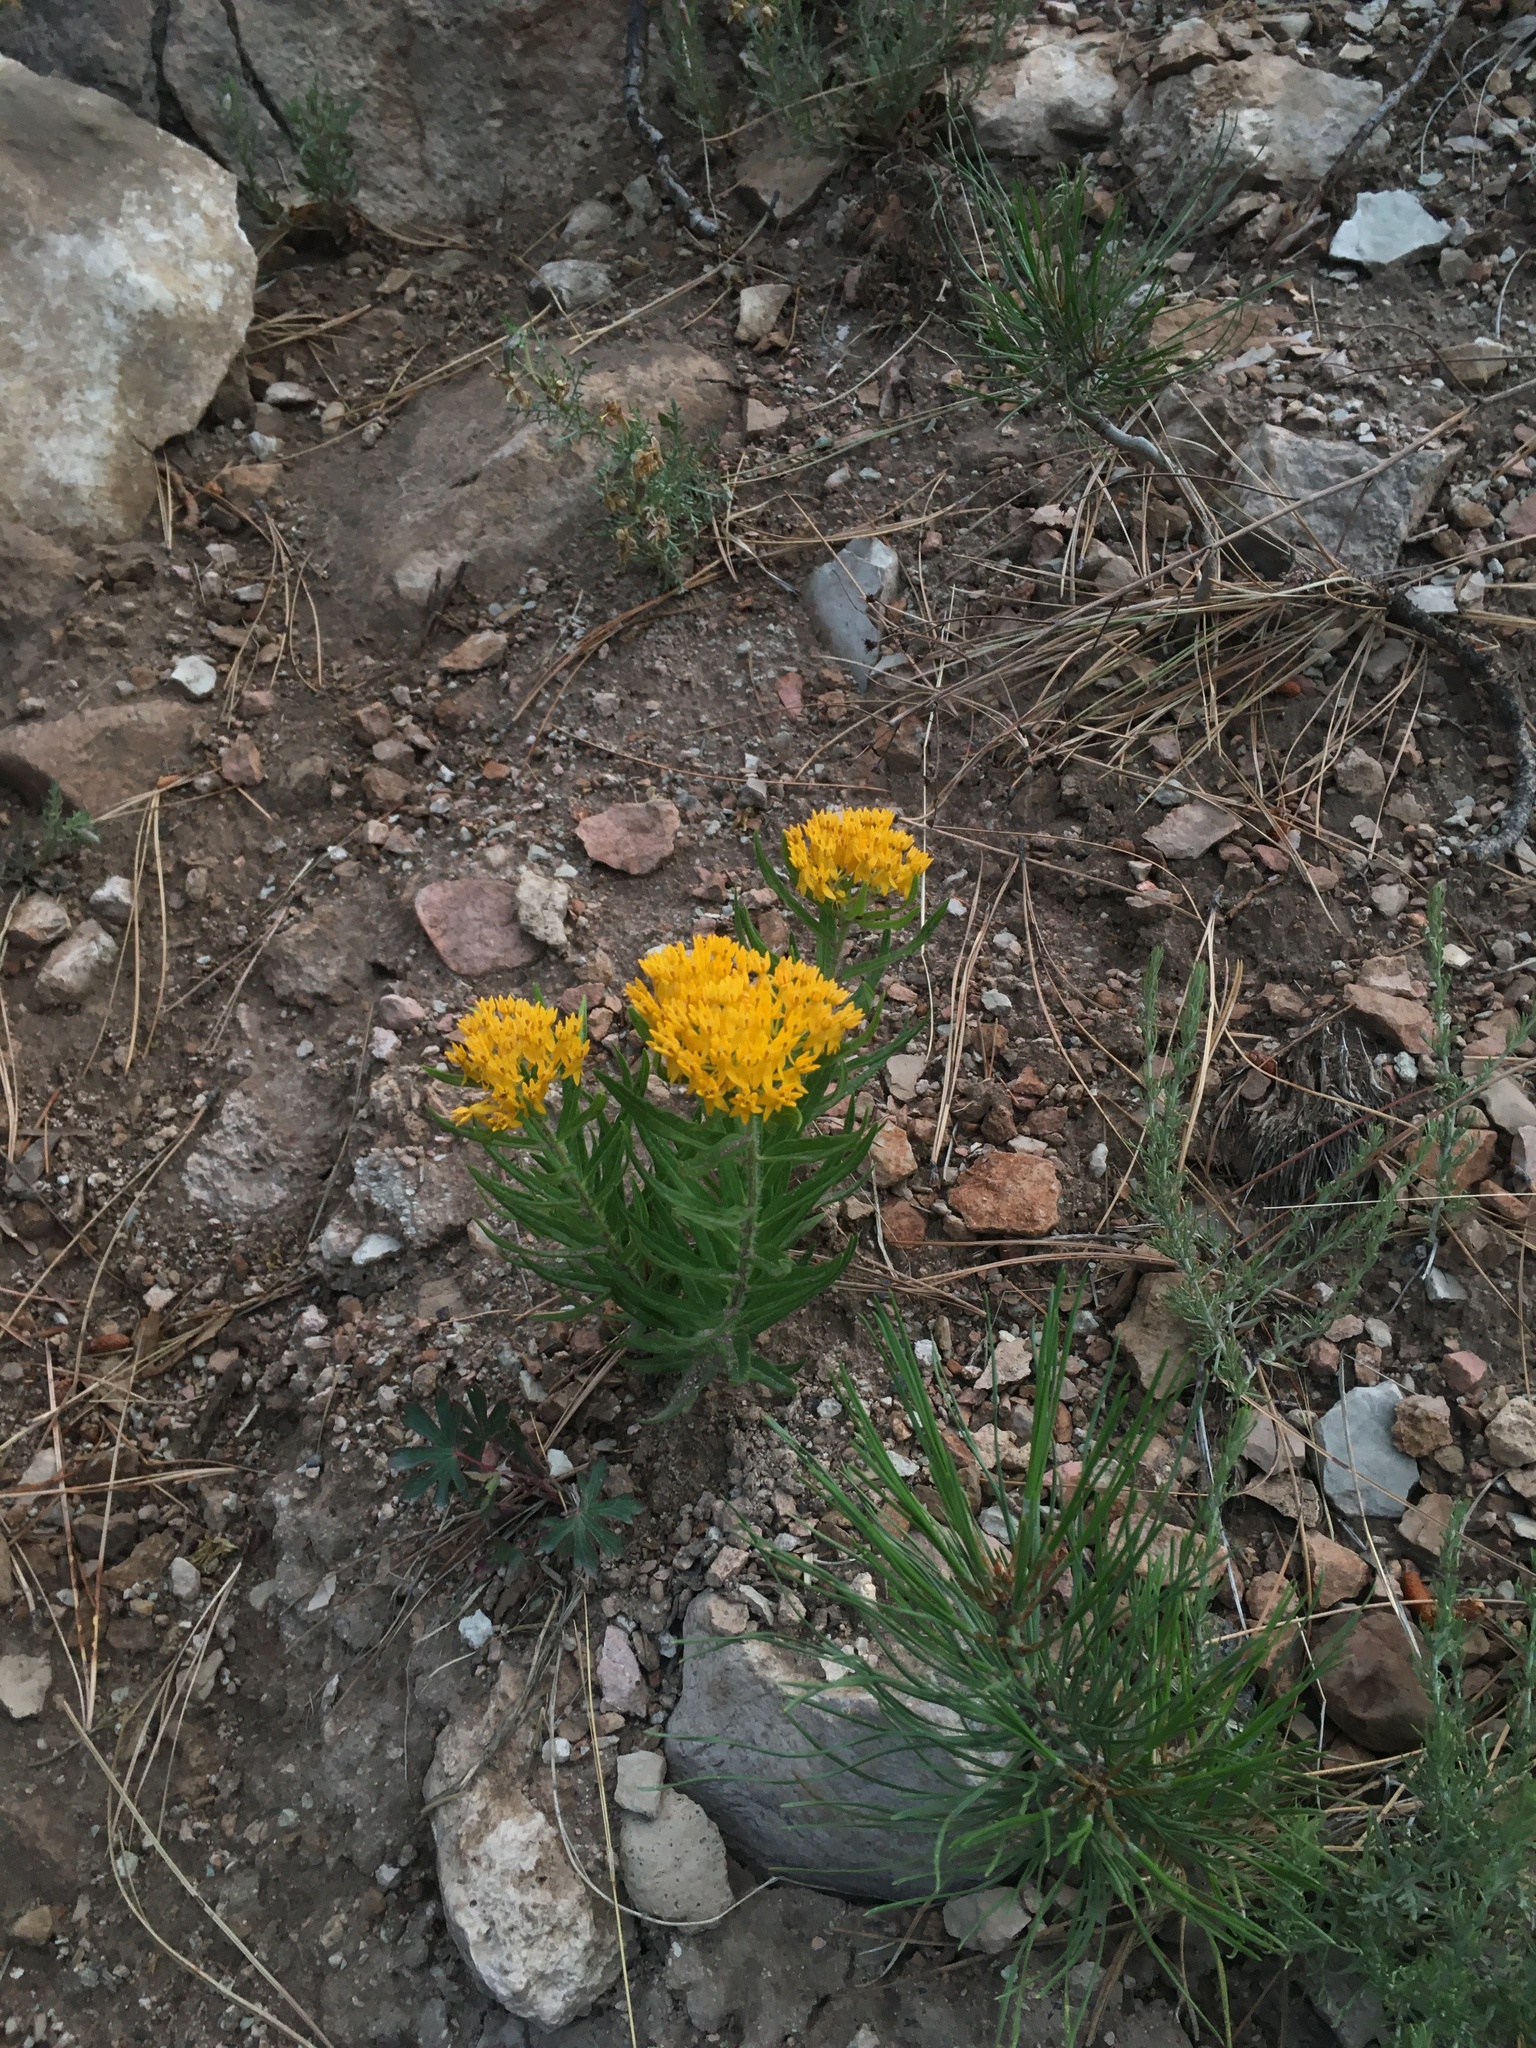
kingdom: Plantae
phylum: Tracheophyta
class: Magnoliopsida
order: Gentianales
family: Apocynaceae
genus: Asclepias
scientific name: Asclepias tuberosa
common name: Butterfly milkweed
